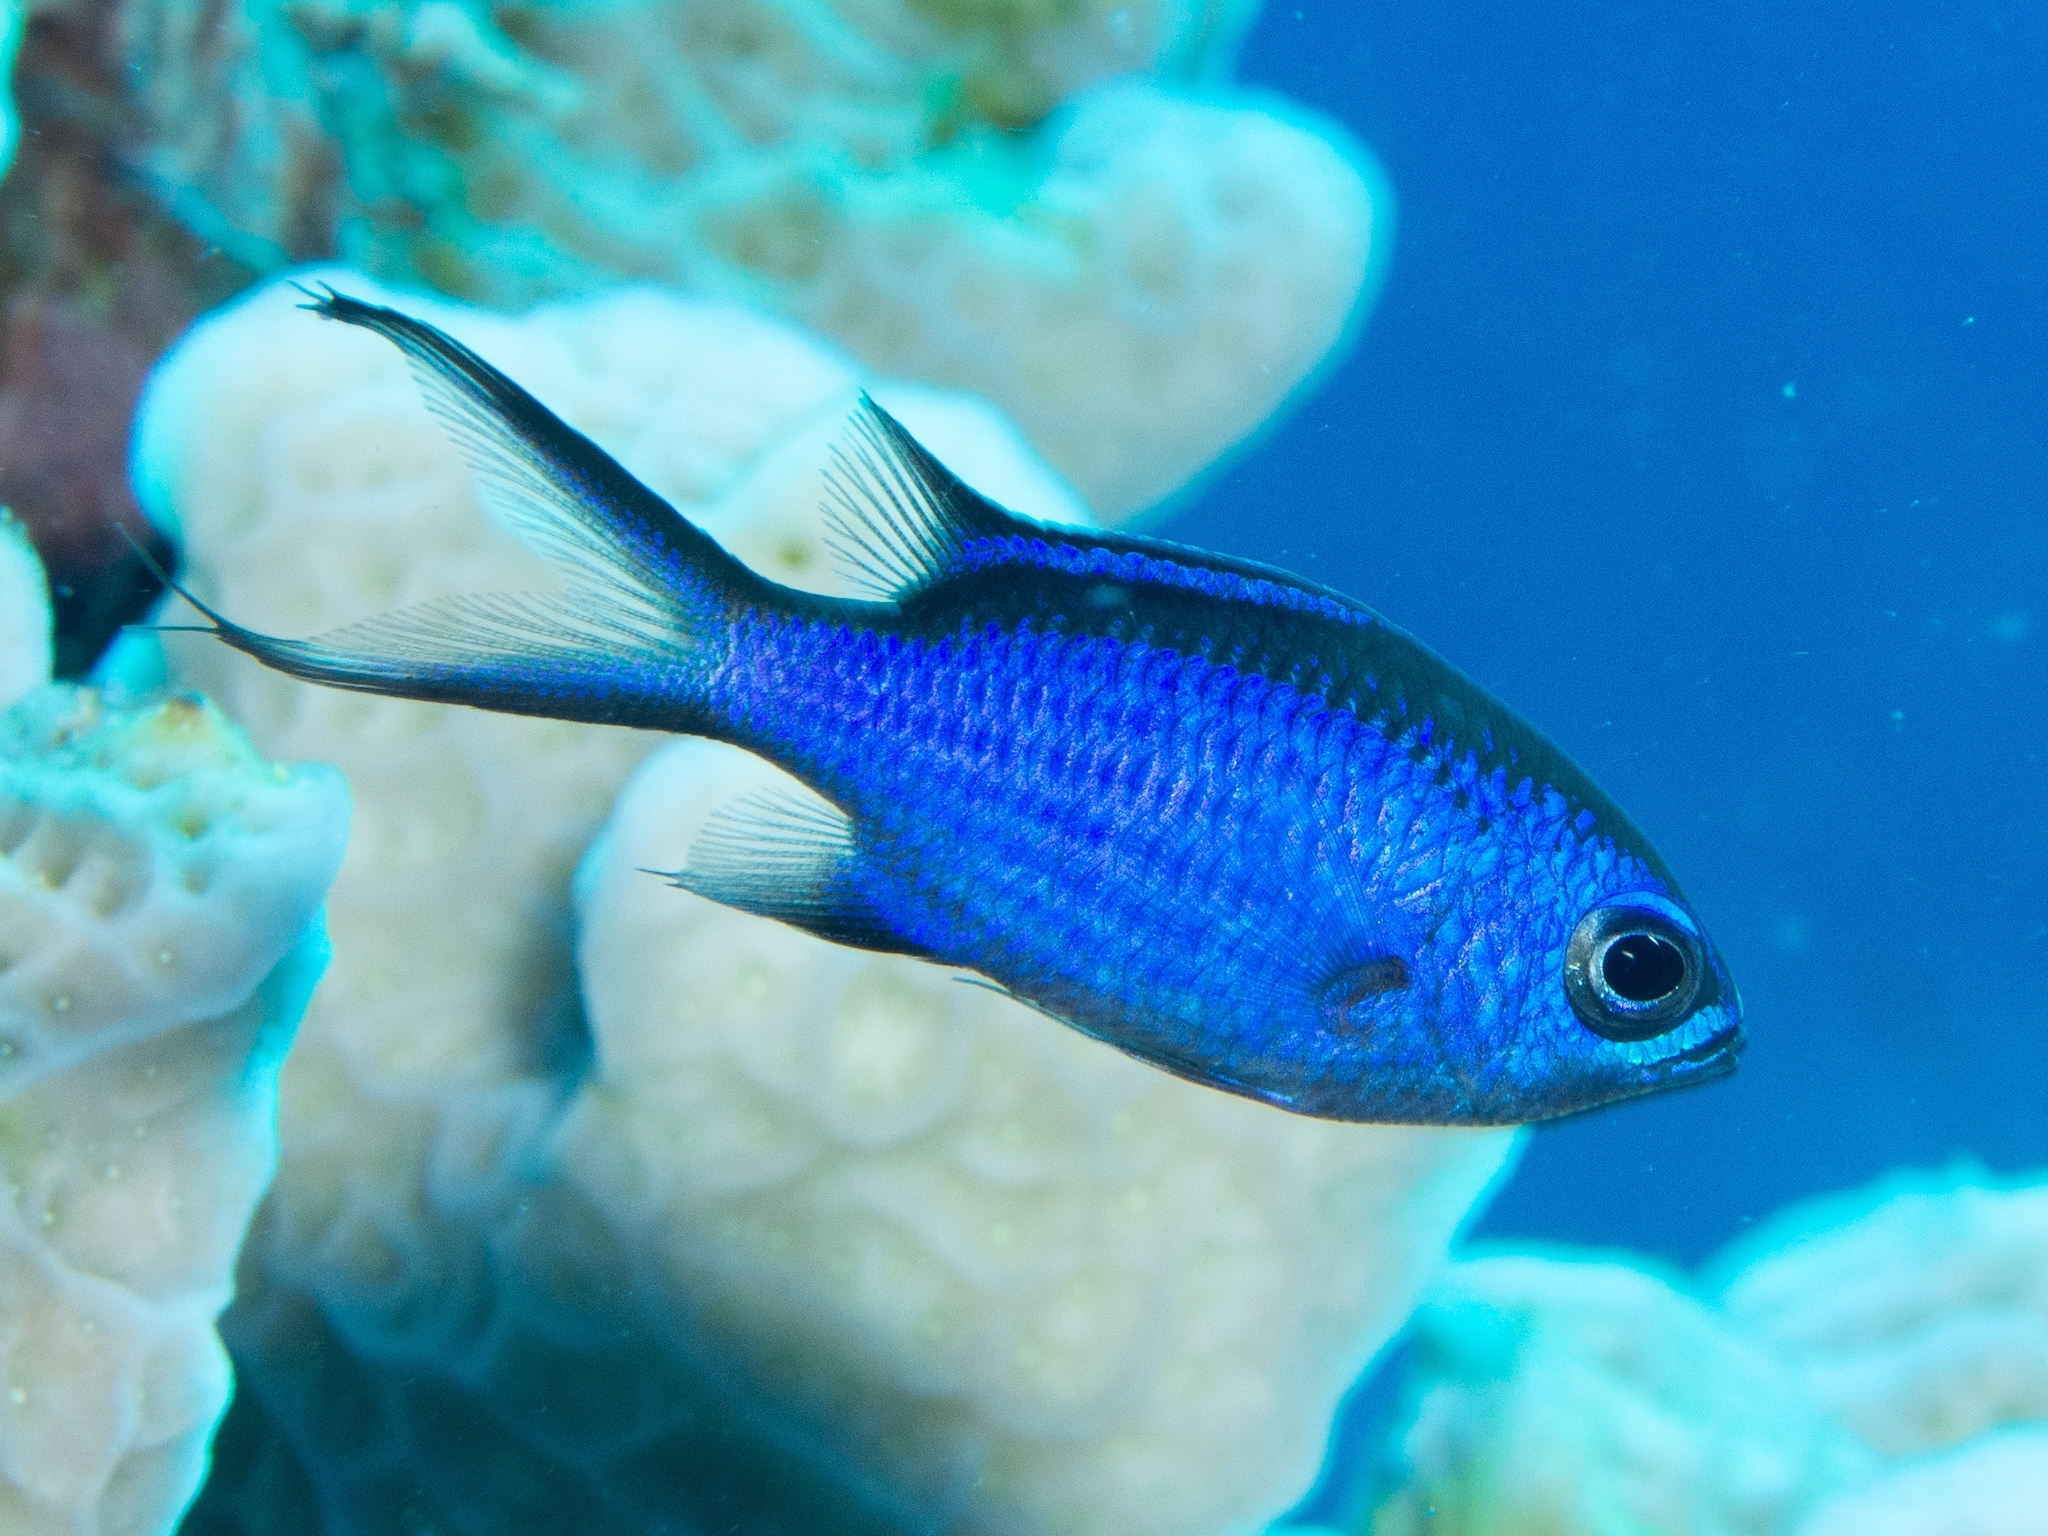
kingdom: Animalia
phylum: Chordata
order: Perciformes
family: Pomacentridae
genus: Chromis
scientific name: Chromis cyanea
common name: Blue chromis
